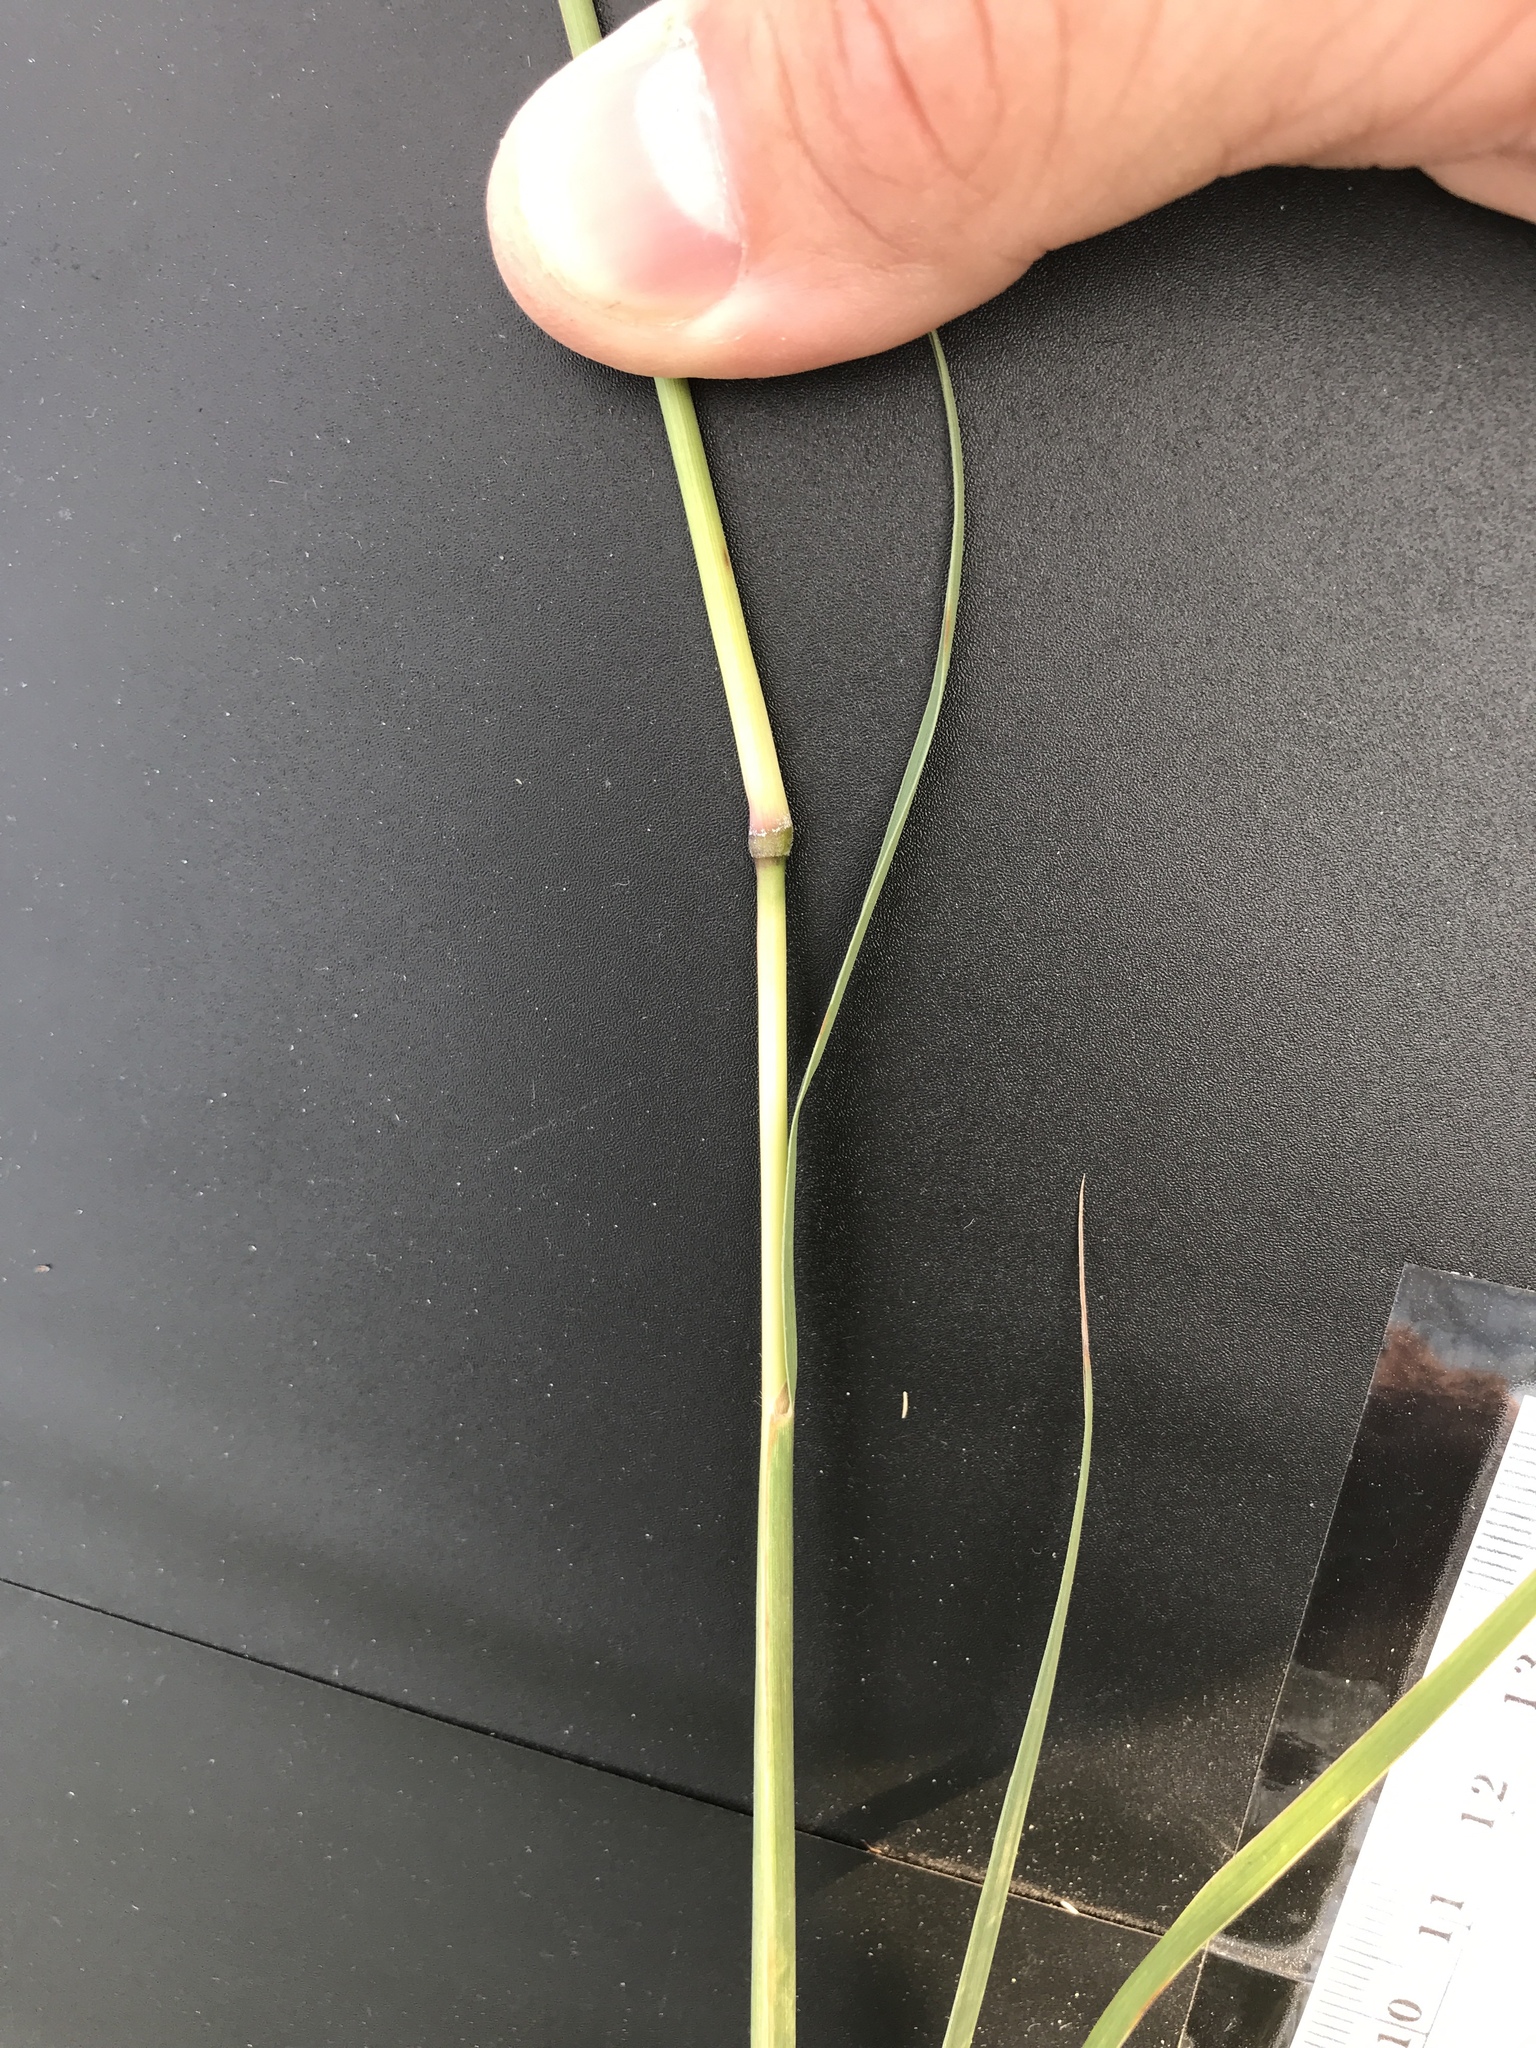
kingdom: Plantae
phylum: Tracheophyta
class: Liliopsida
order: Poales
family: Poaceae
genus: Bothriochloa
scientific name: Bothriochloa torreyana
